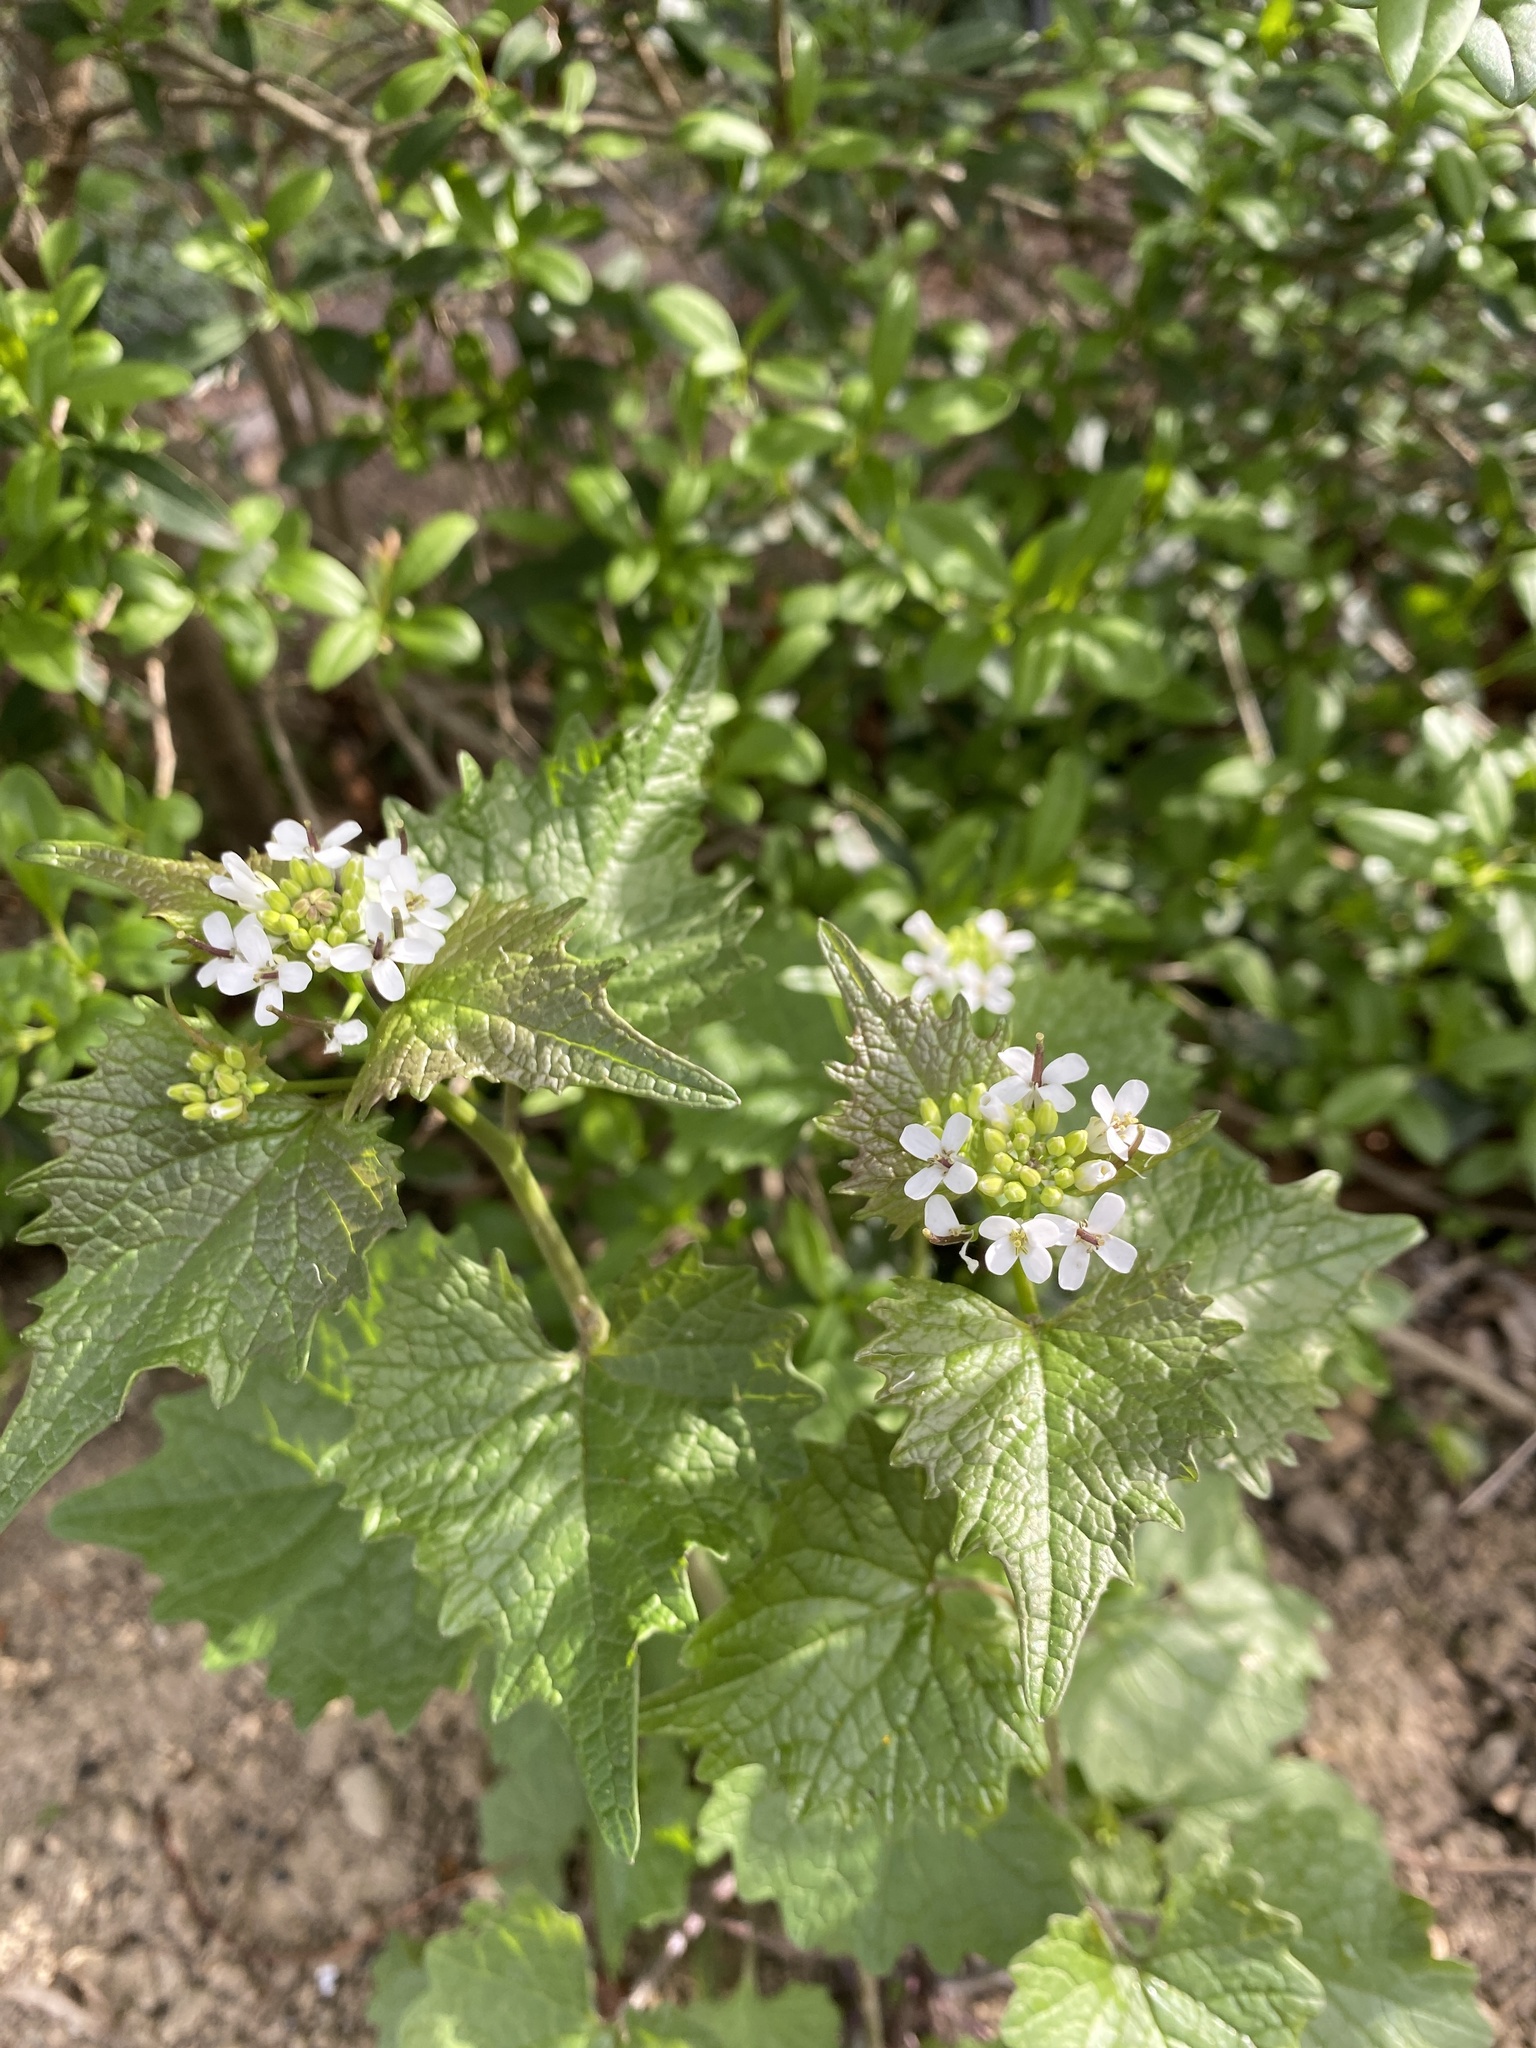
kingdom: Plantae
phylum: Tracheophyta
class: Magnoliopsida
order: Brassicales
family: Brassicaceae
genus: Alliaria
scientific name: Alliaria petiolata
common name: Garlic mustard
